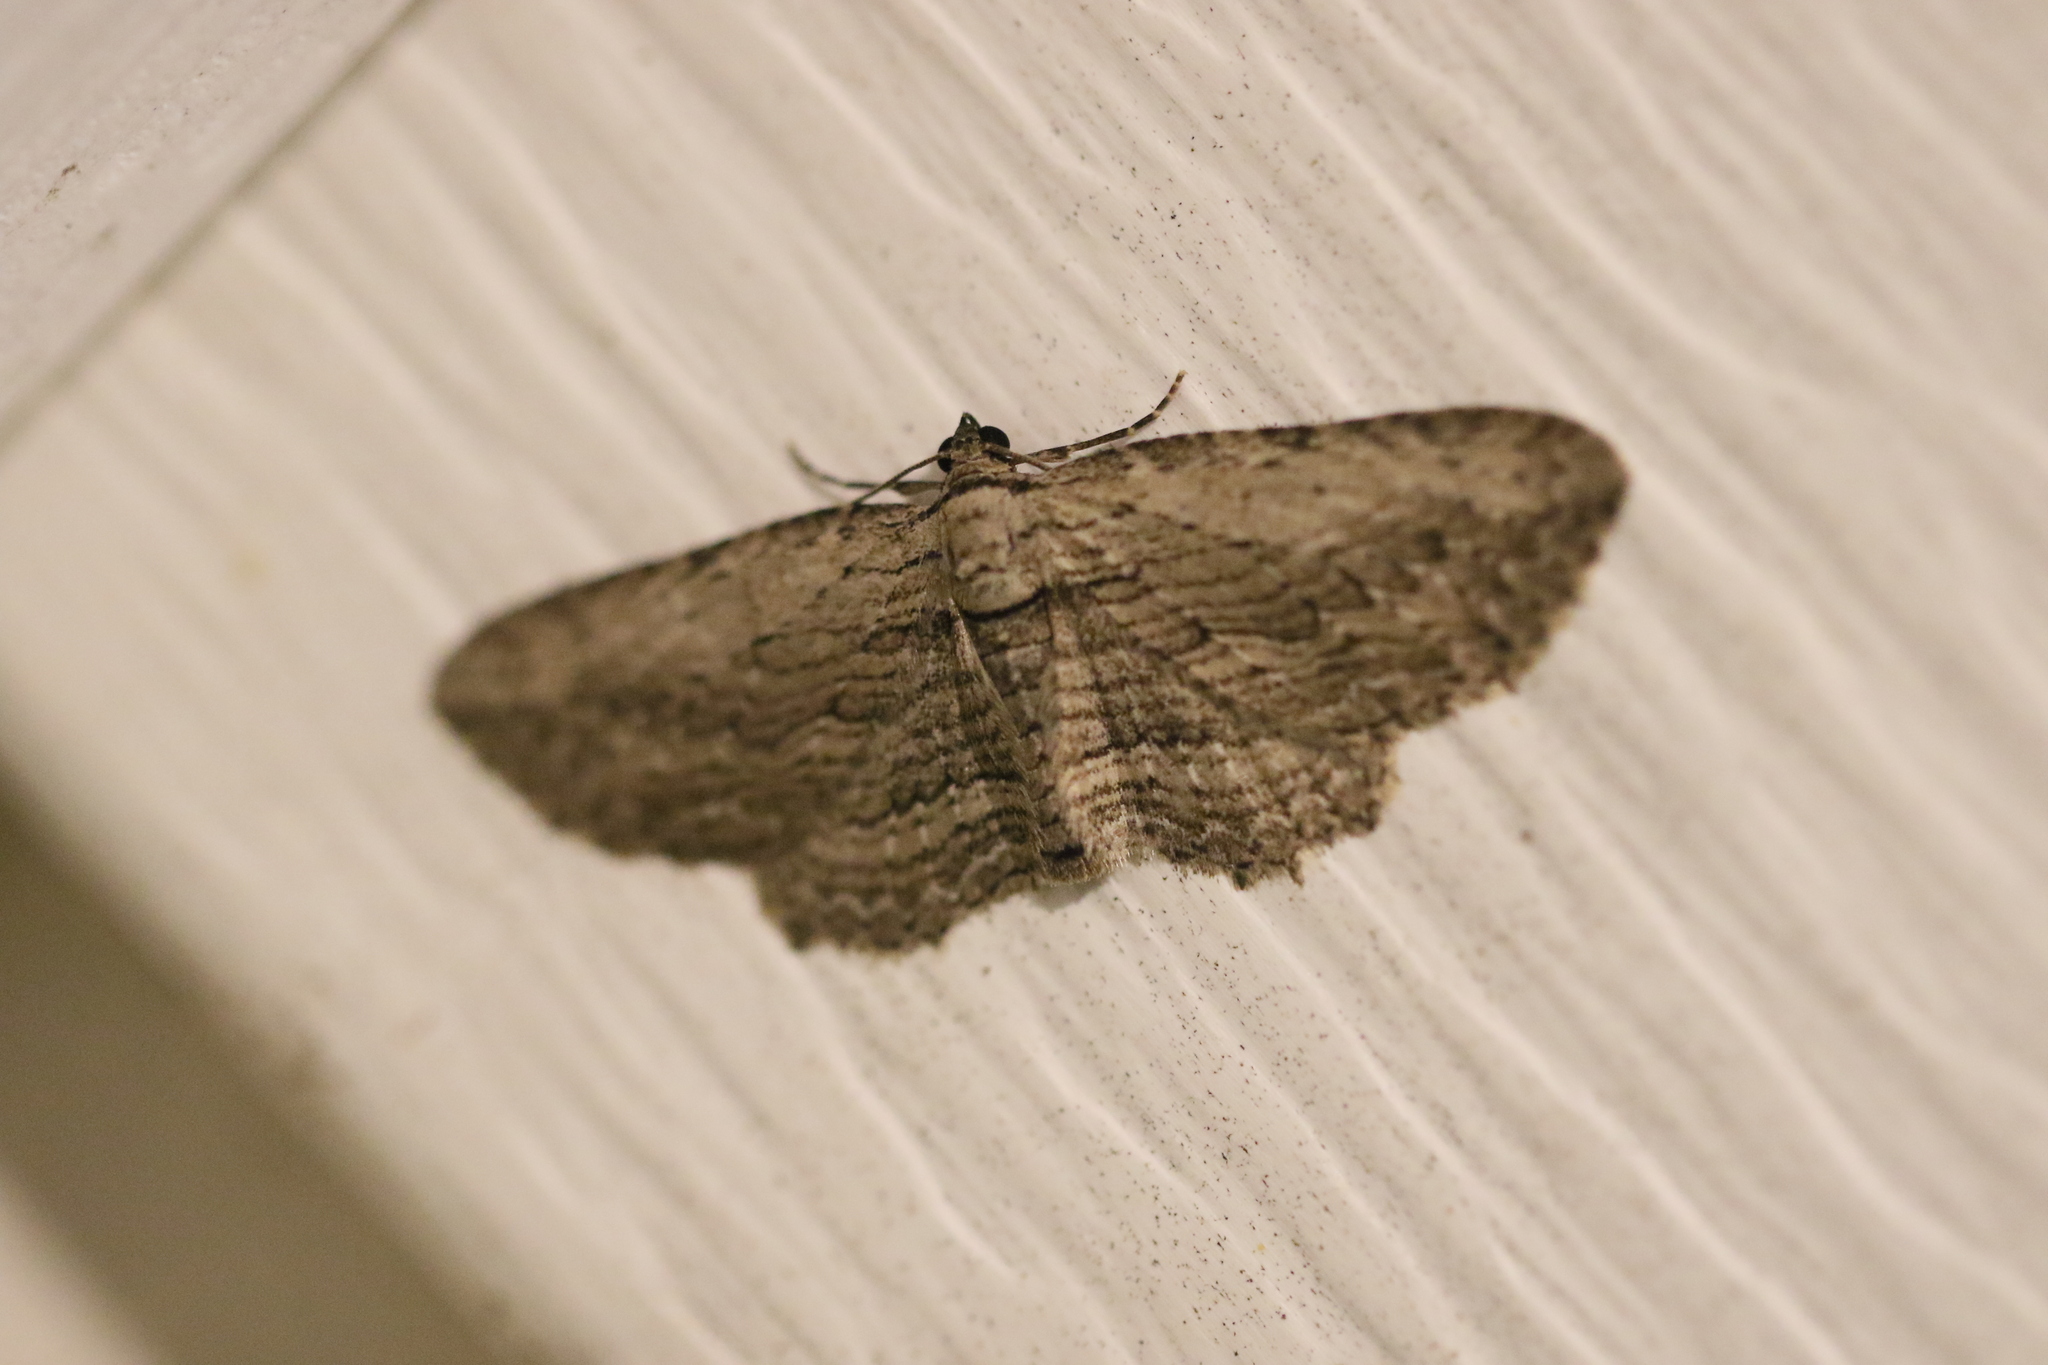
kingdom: Animalia
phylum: Arthropoda
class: Insecta
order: Lepidoptera
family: Geometridae
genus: Horisme
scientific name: Horisme intestinata
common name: Brown bark carpet
